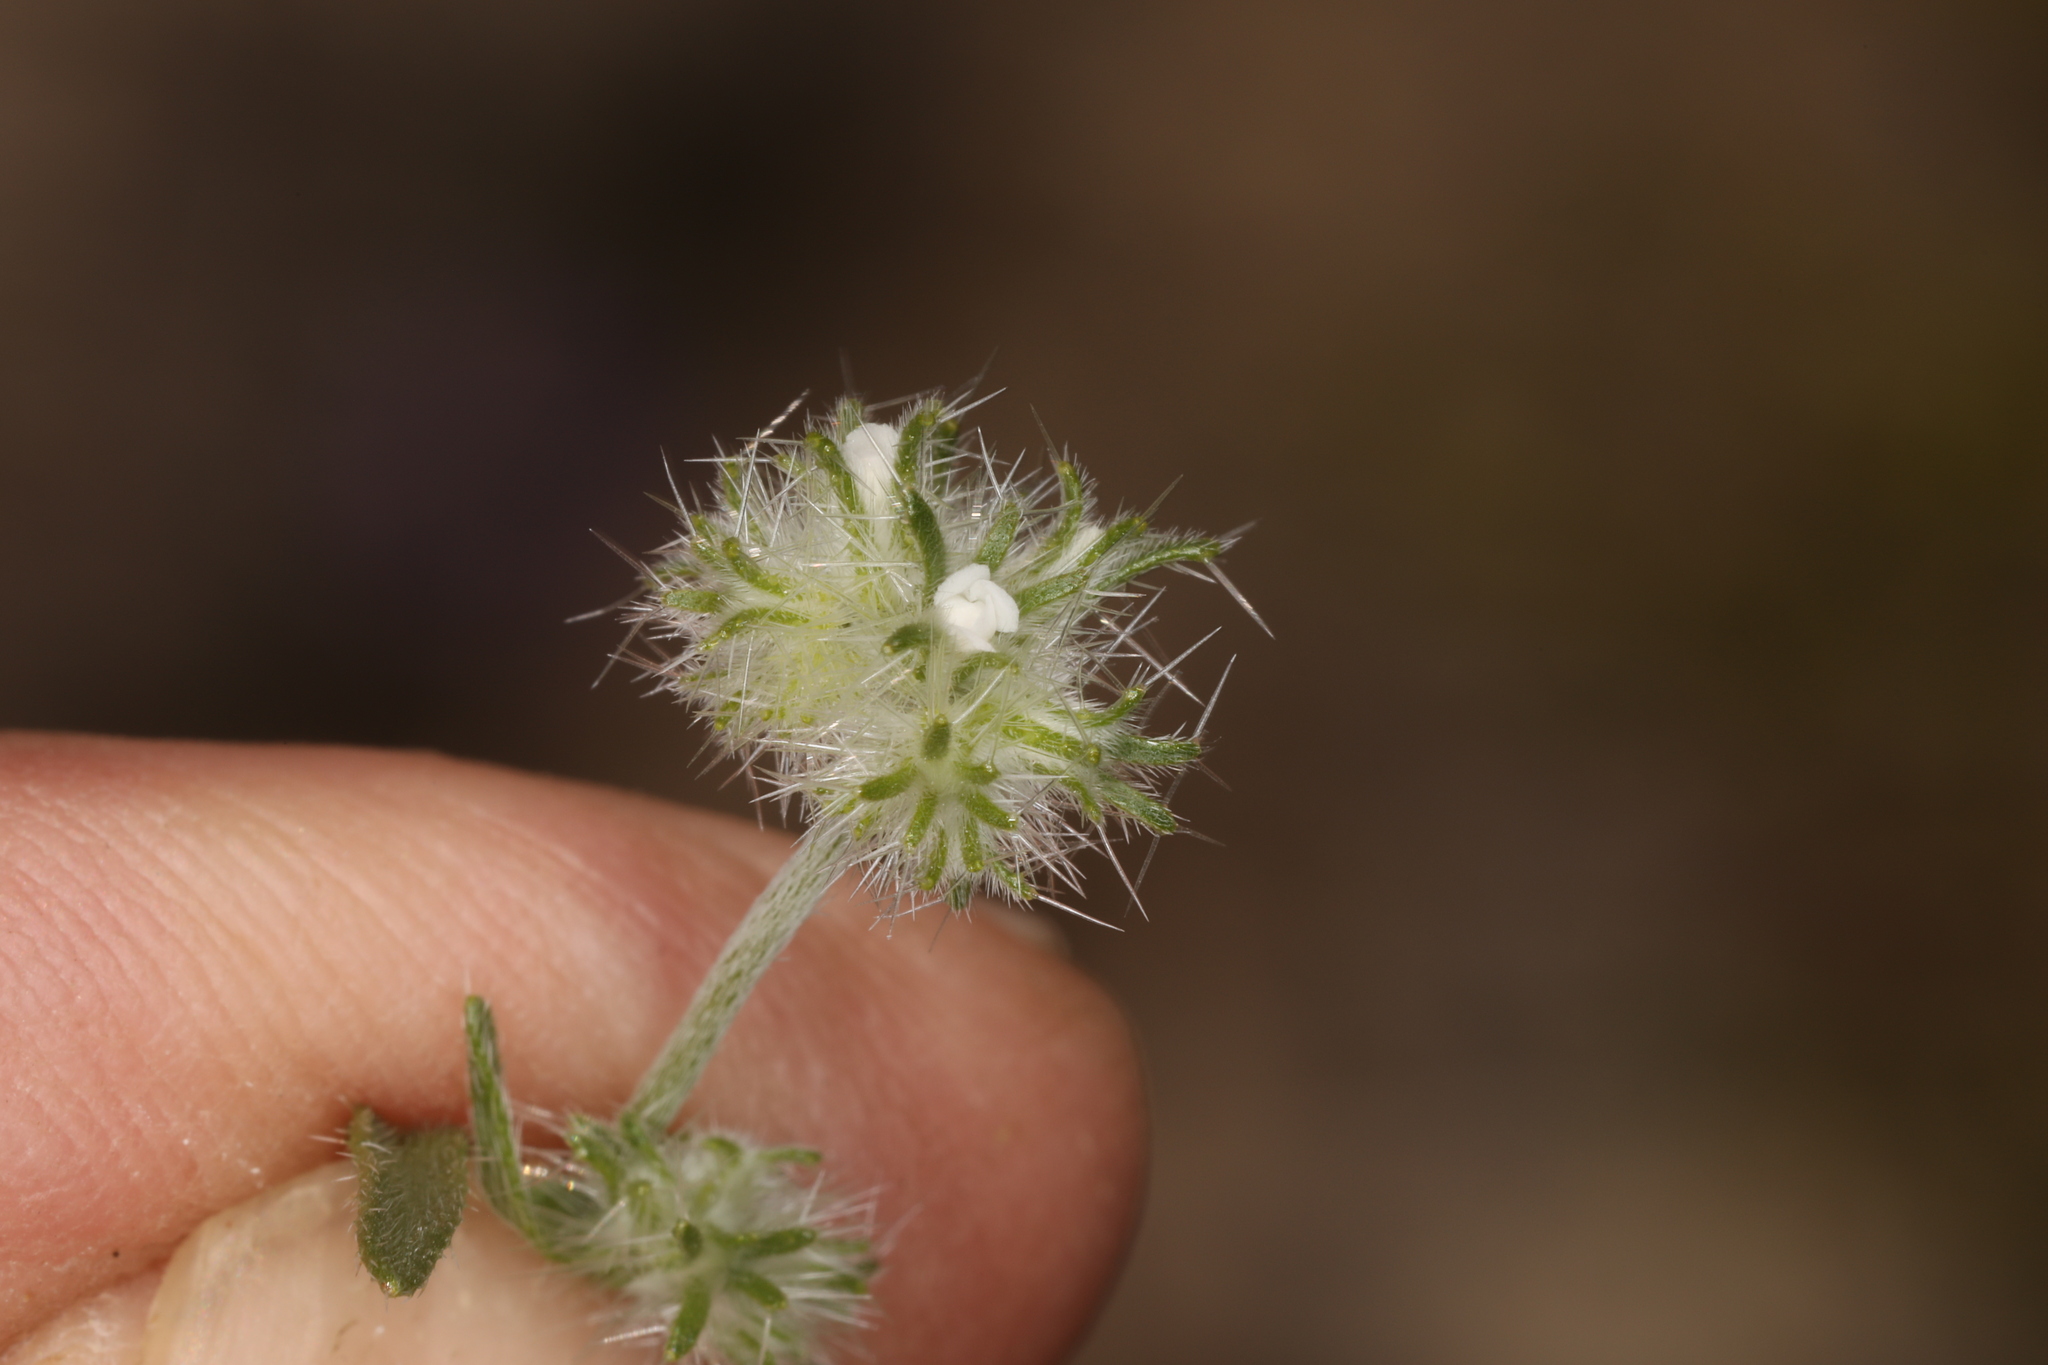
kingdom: Plantae
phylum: Tracheophyta
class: Magnoliopsida
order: Boraginales
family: Boraginaceae
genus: Cryptantha
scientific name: Cryptantha nevadensis
